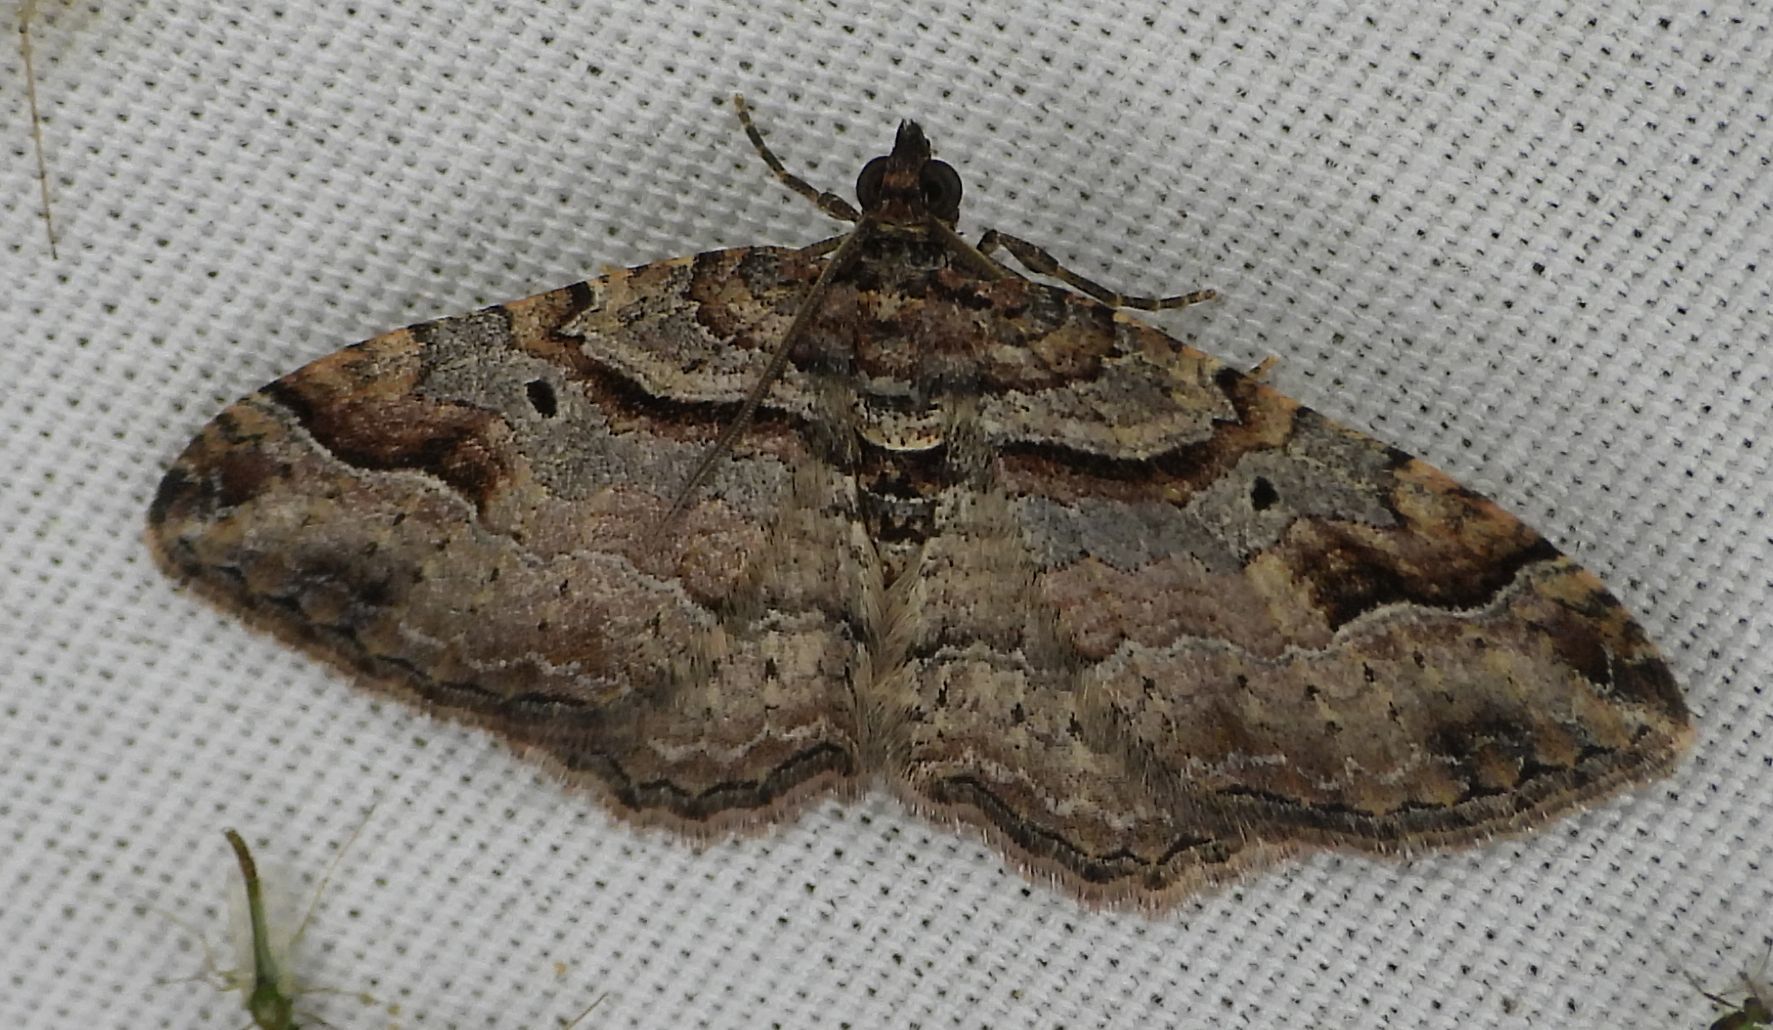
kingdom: Animalia
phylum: Arthropoda
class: Insecta
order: Lepidoptera
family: Geometridae
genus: Costaconvexa
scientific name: Costaconvexa centrostrigaria
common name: Bent-line carpet
